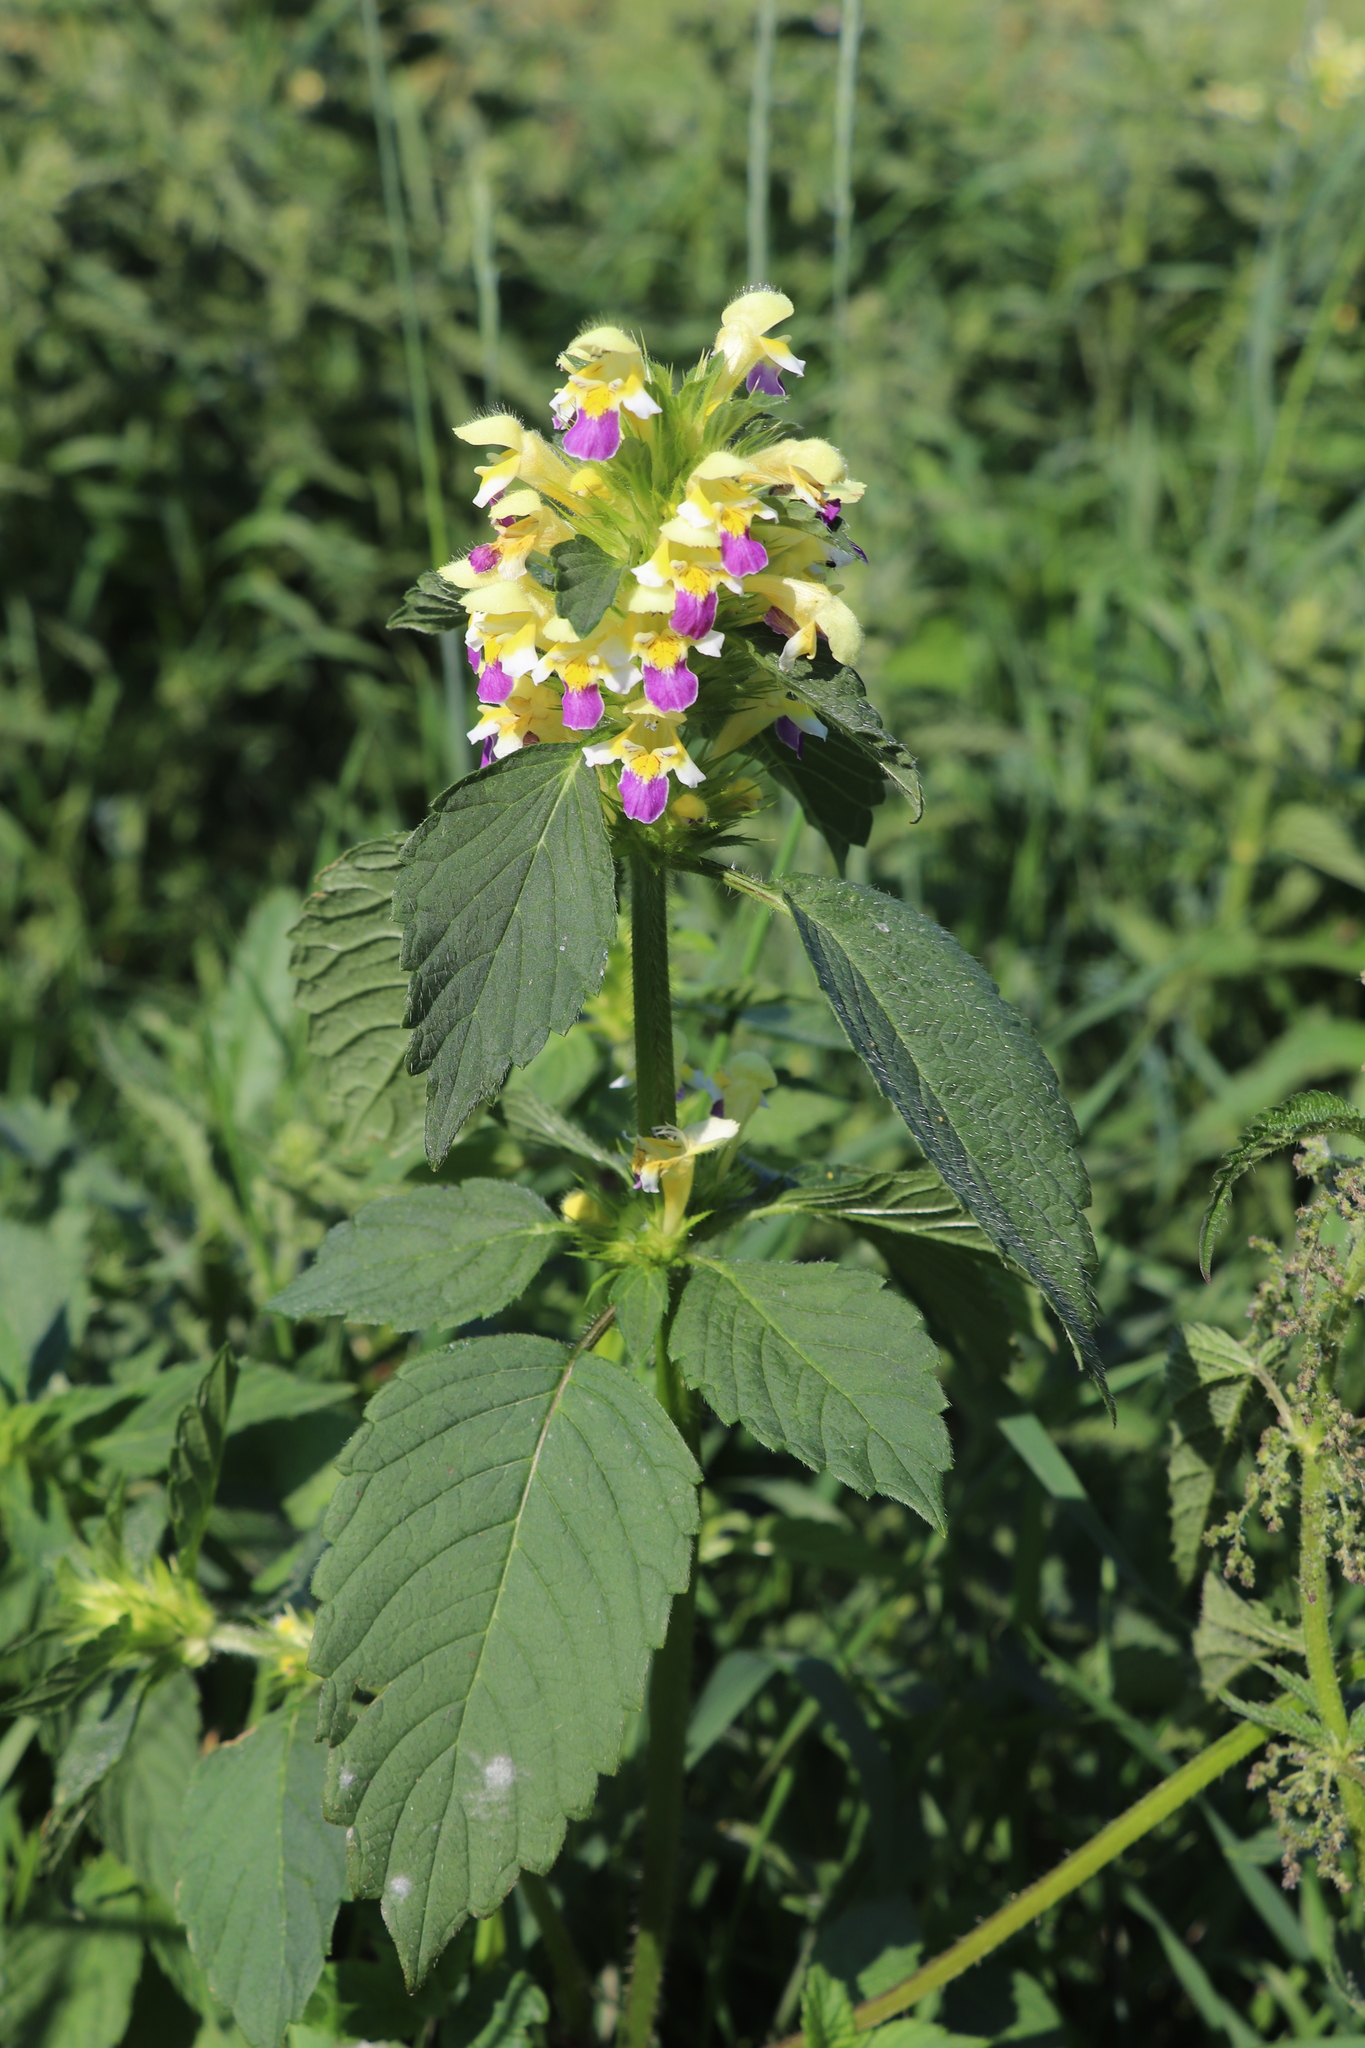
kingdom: Plantae
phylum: Tracheophyta
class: Magnoliopsida
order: Lamiales
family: Lamiaceae
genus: Galeopsis
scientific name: Galeopsis speciosa
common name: Large-flowered hemp-nettle
